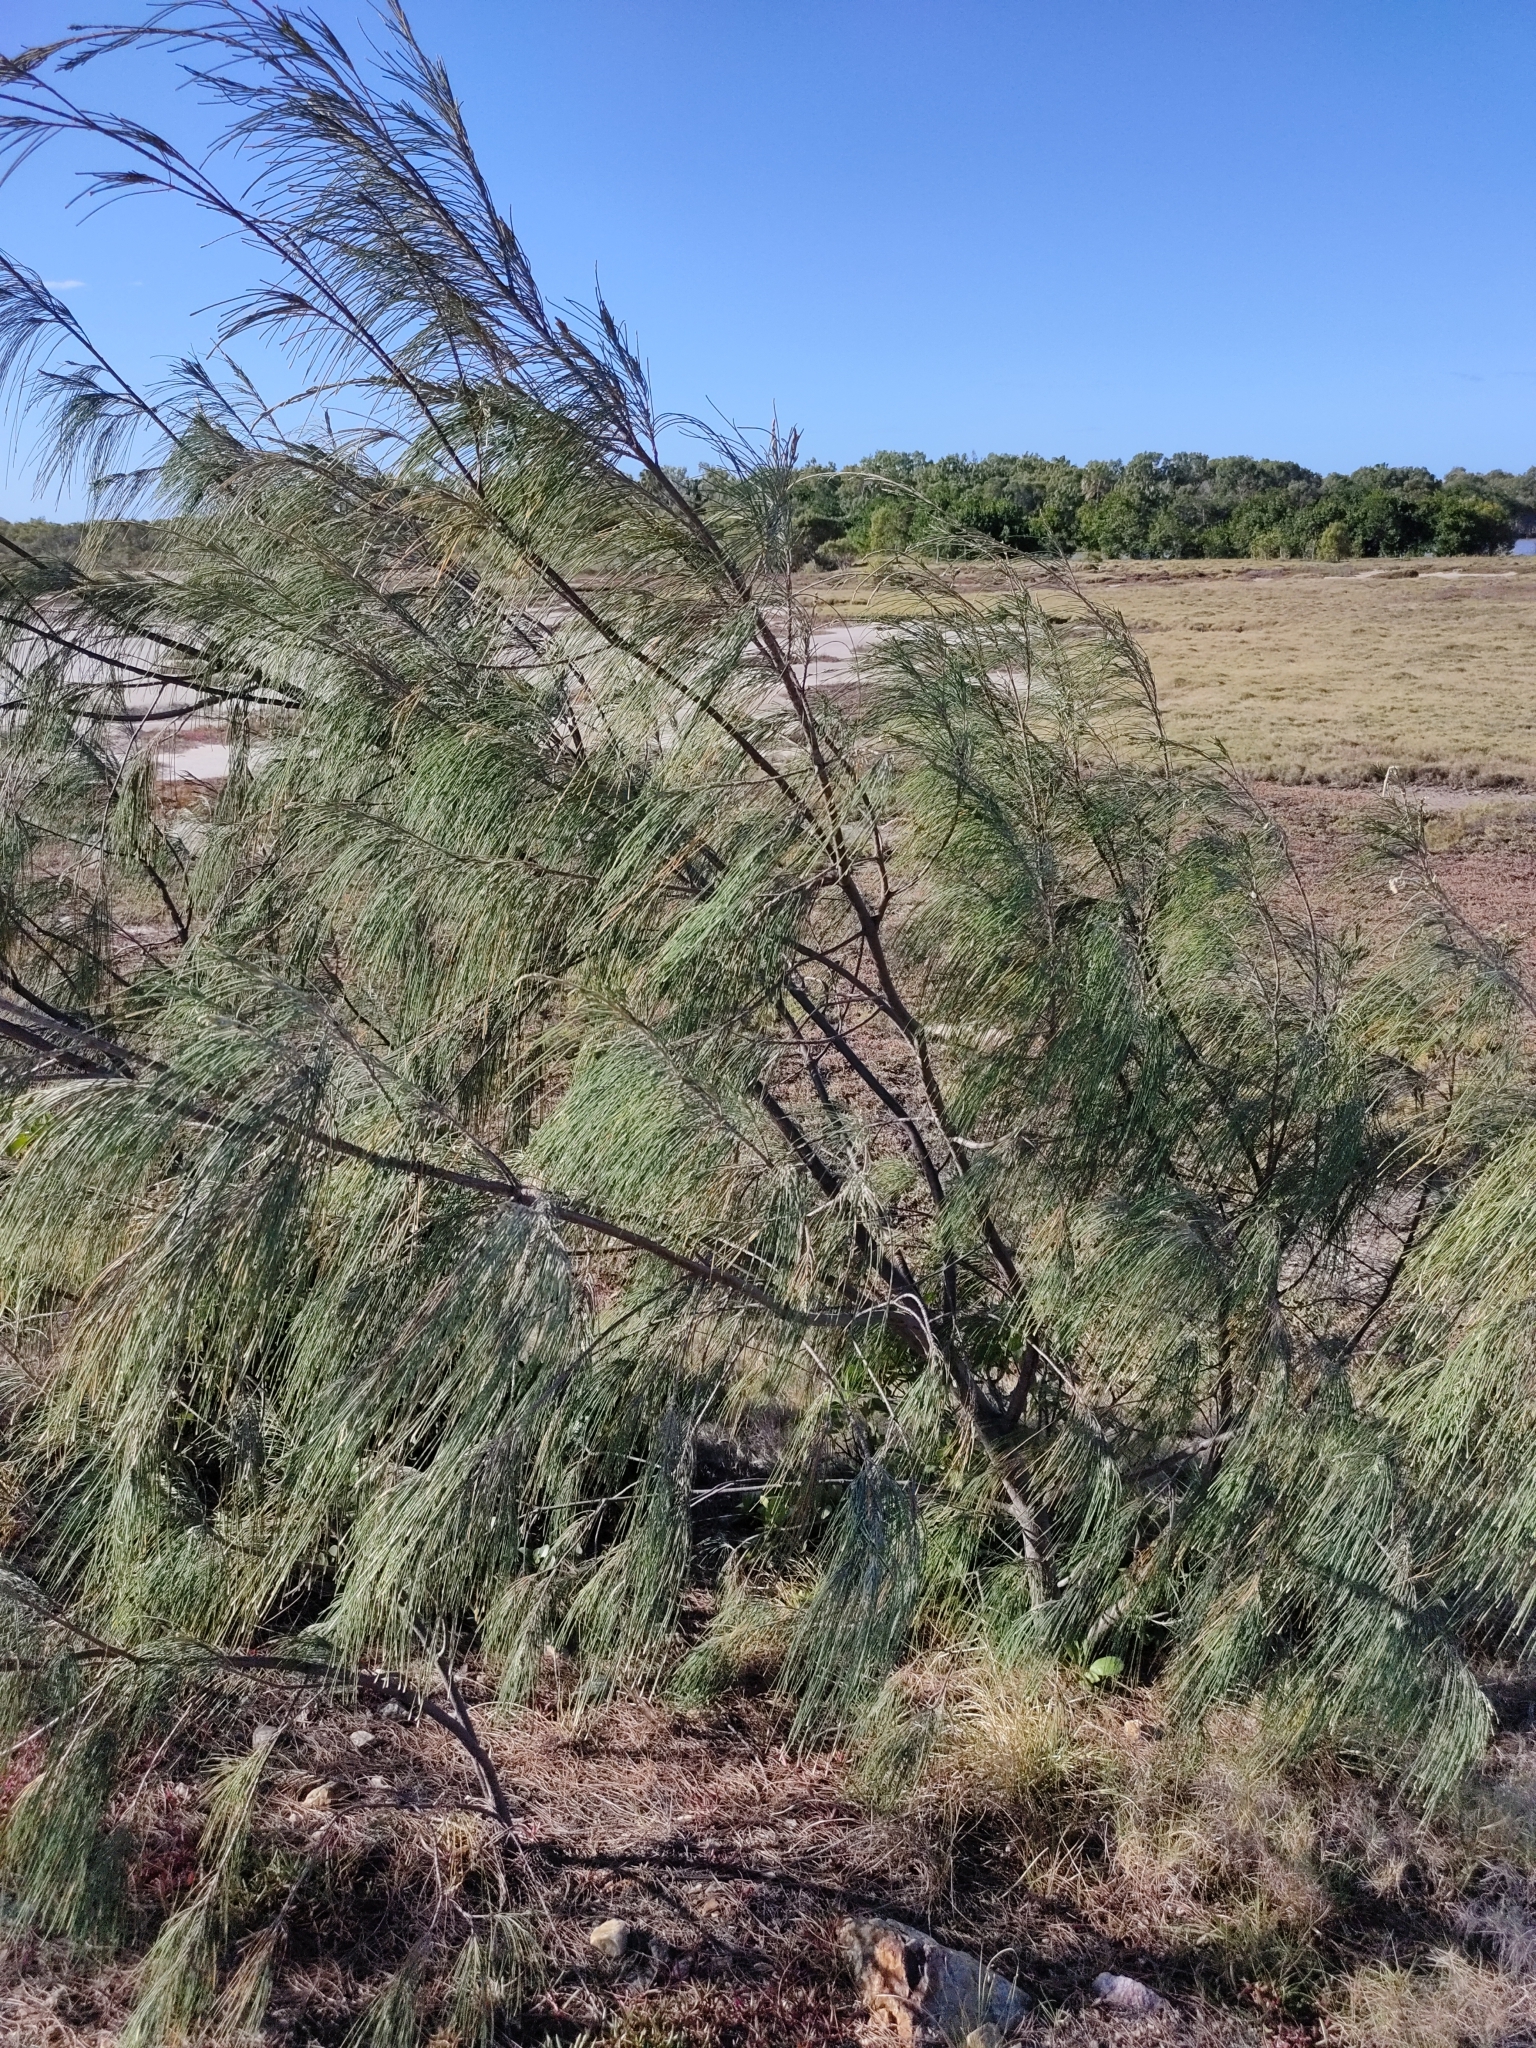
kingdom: Plantae
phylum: Tracheophyta
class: Magnoliopsida
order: Fagales
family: Casuarinaceae
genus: Casuarina
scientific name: Casuarina equisetifolia
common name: Beach sheoak
